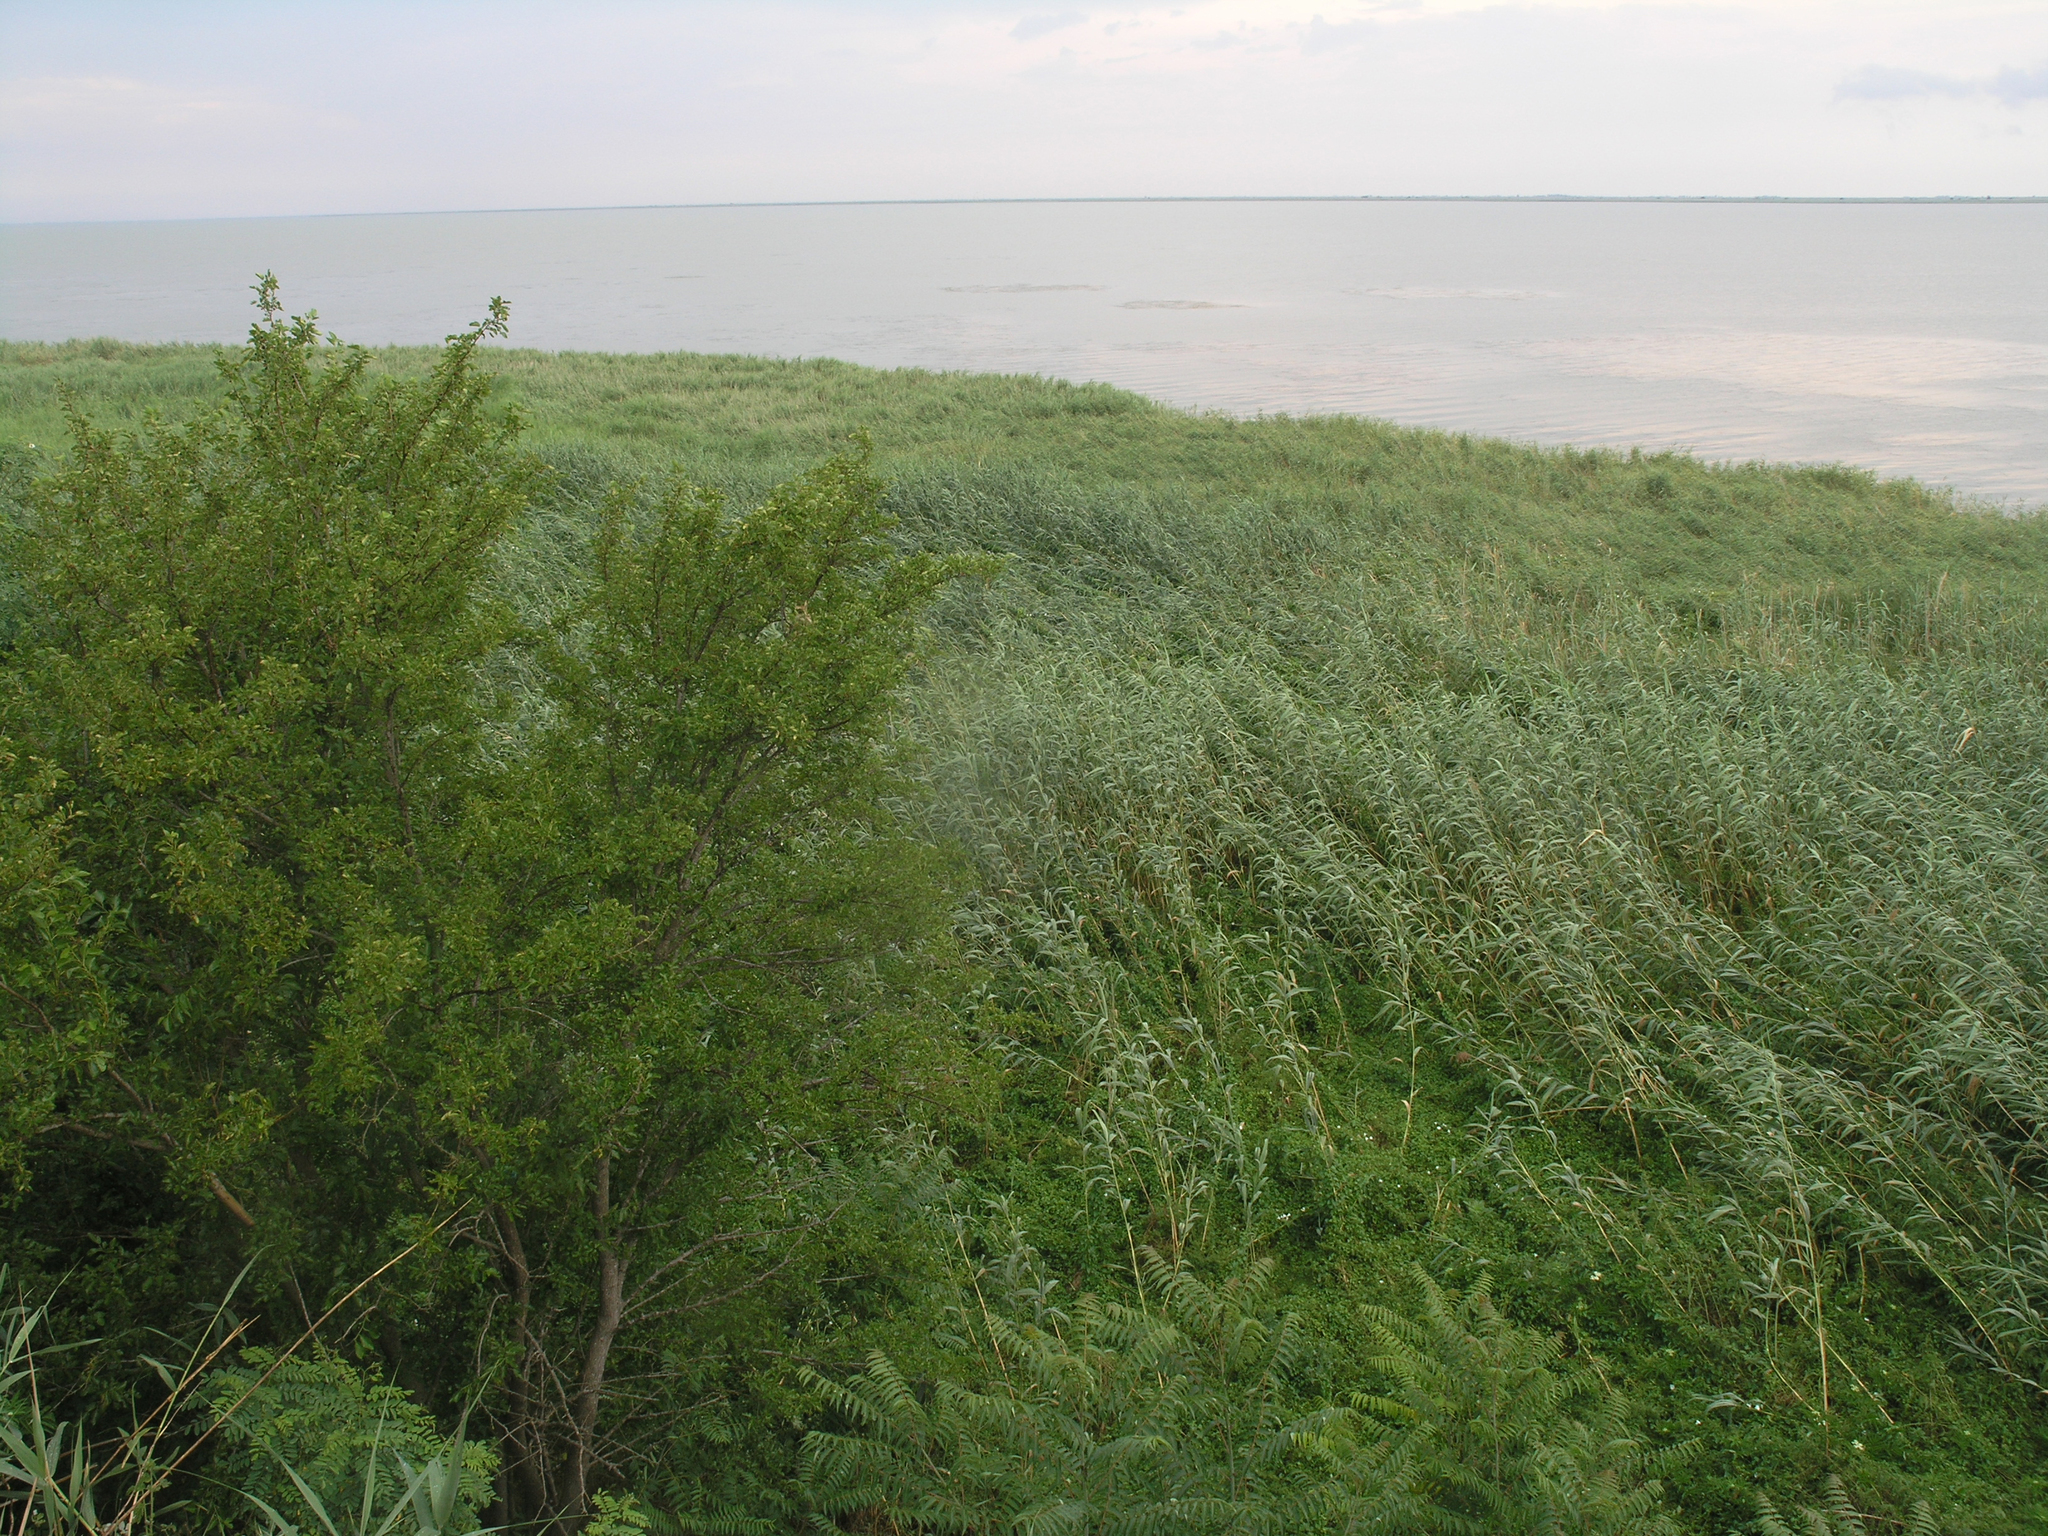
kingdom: Plantae
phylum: Tracheophyta
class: Liliopsida
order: Poales
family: Poaceae
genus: Phragmites
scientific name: Phragmites australis
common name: Common reed
